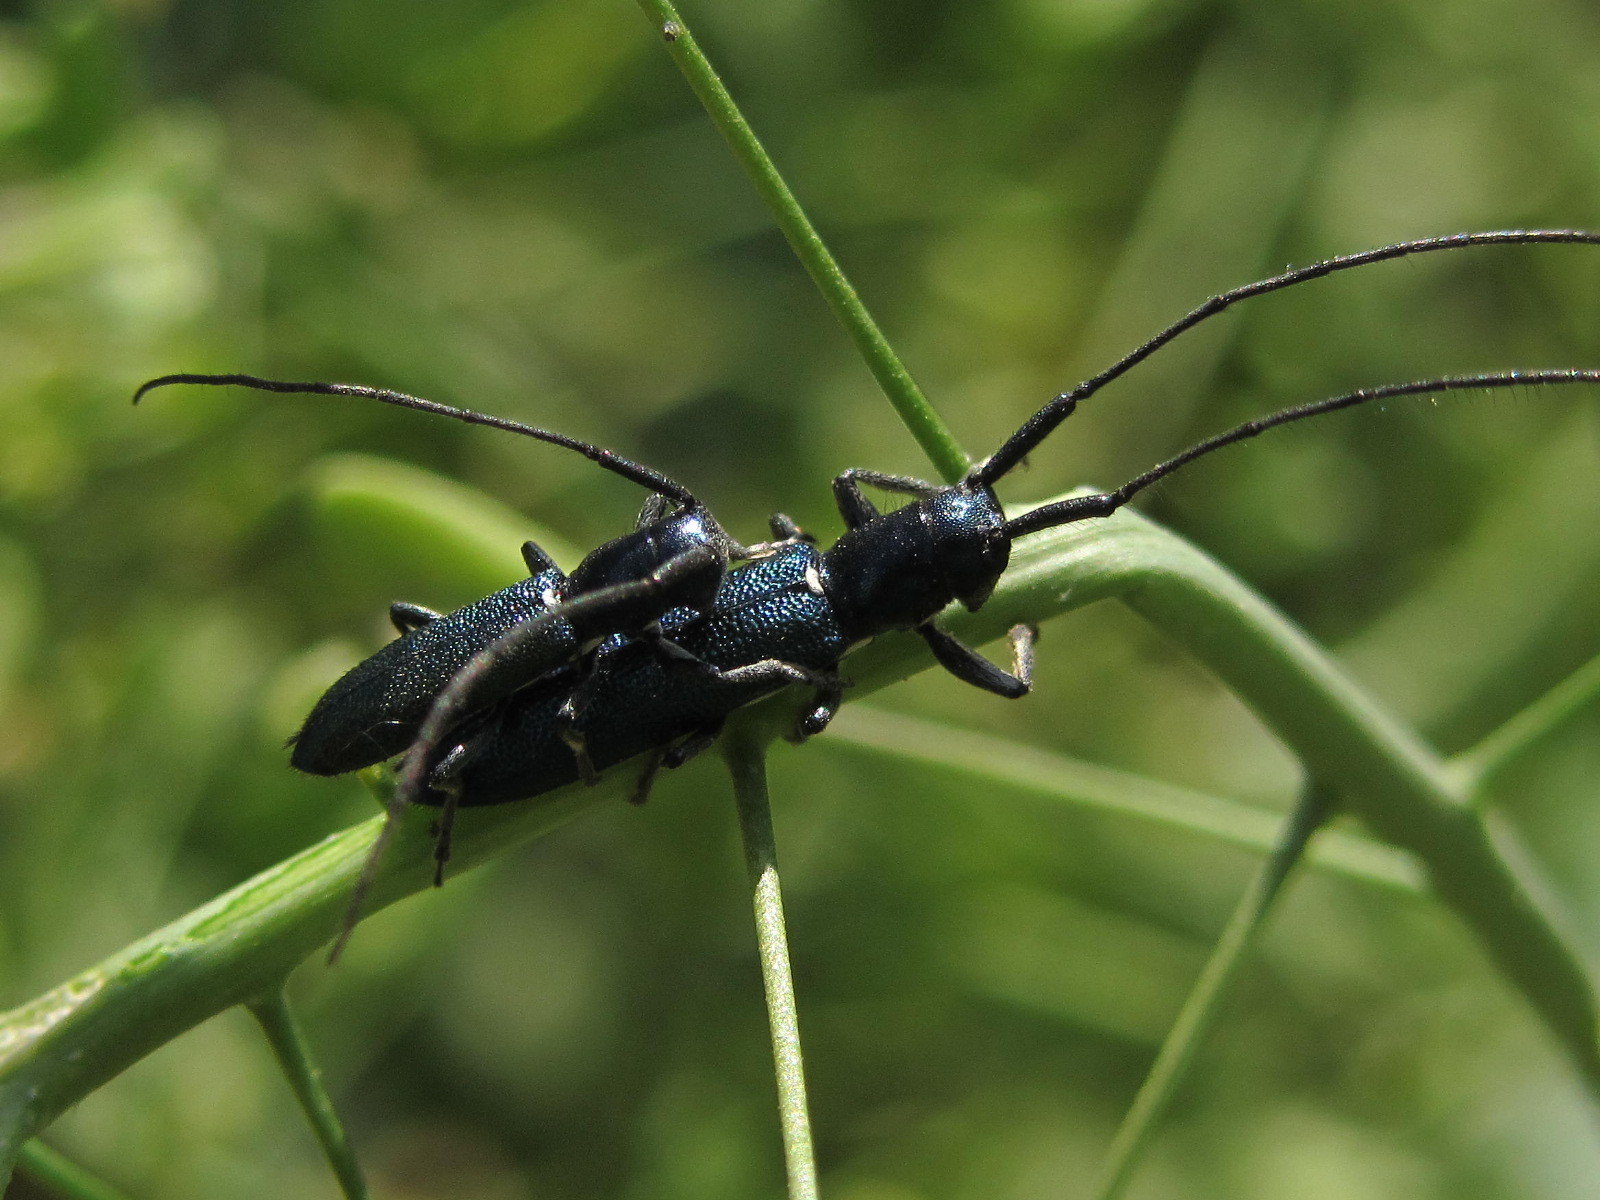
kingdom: Animalia
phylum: Arthropoda
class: Insecta
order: Coleoptera
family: Cerambycidae
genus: Agapanthiola
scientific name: Agapanthiola leucaspis
